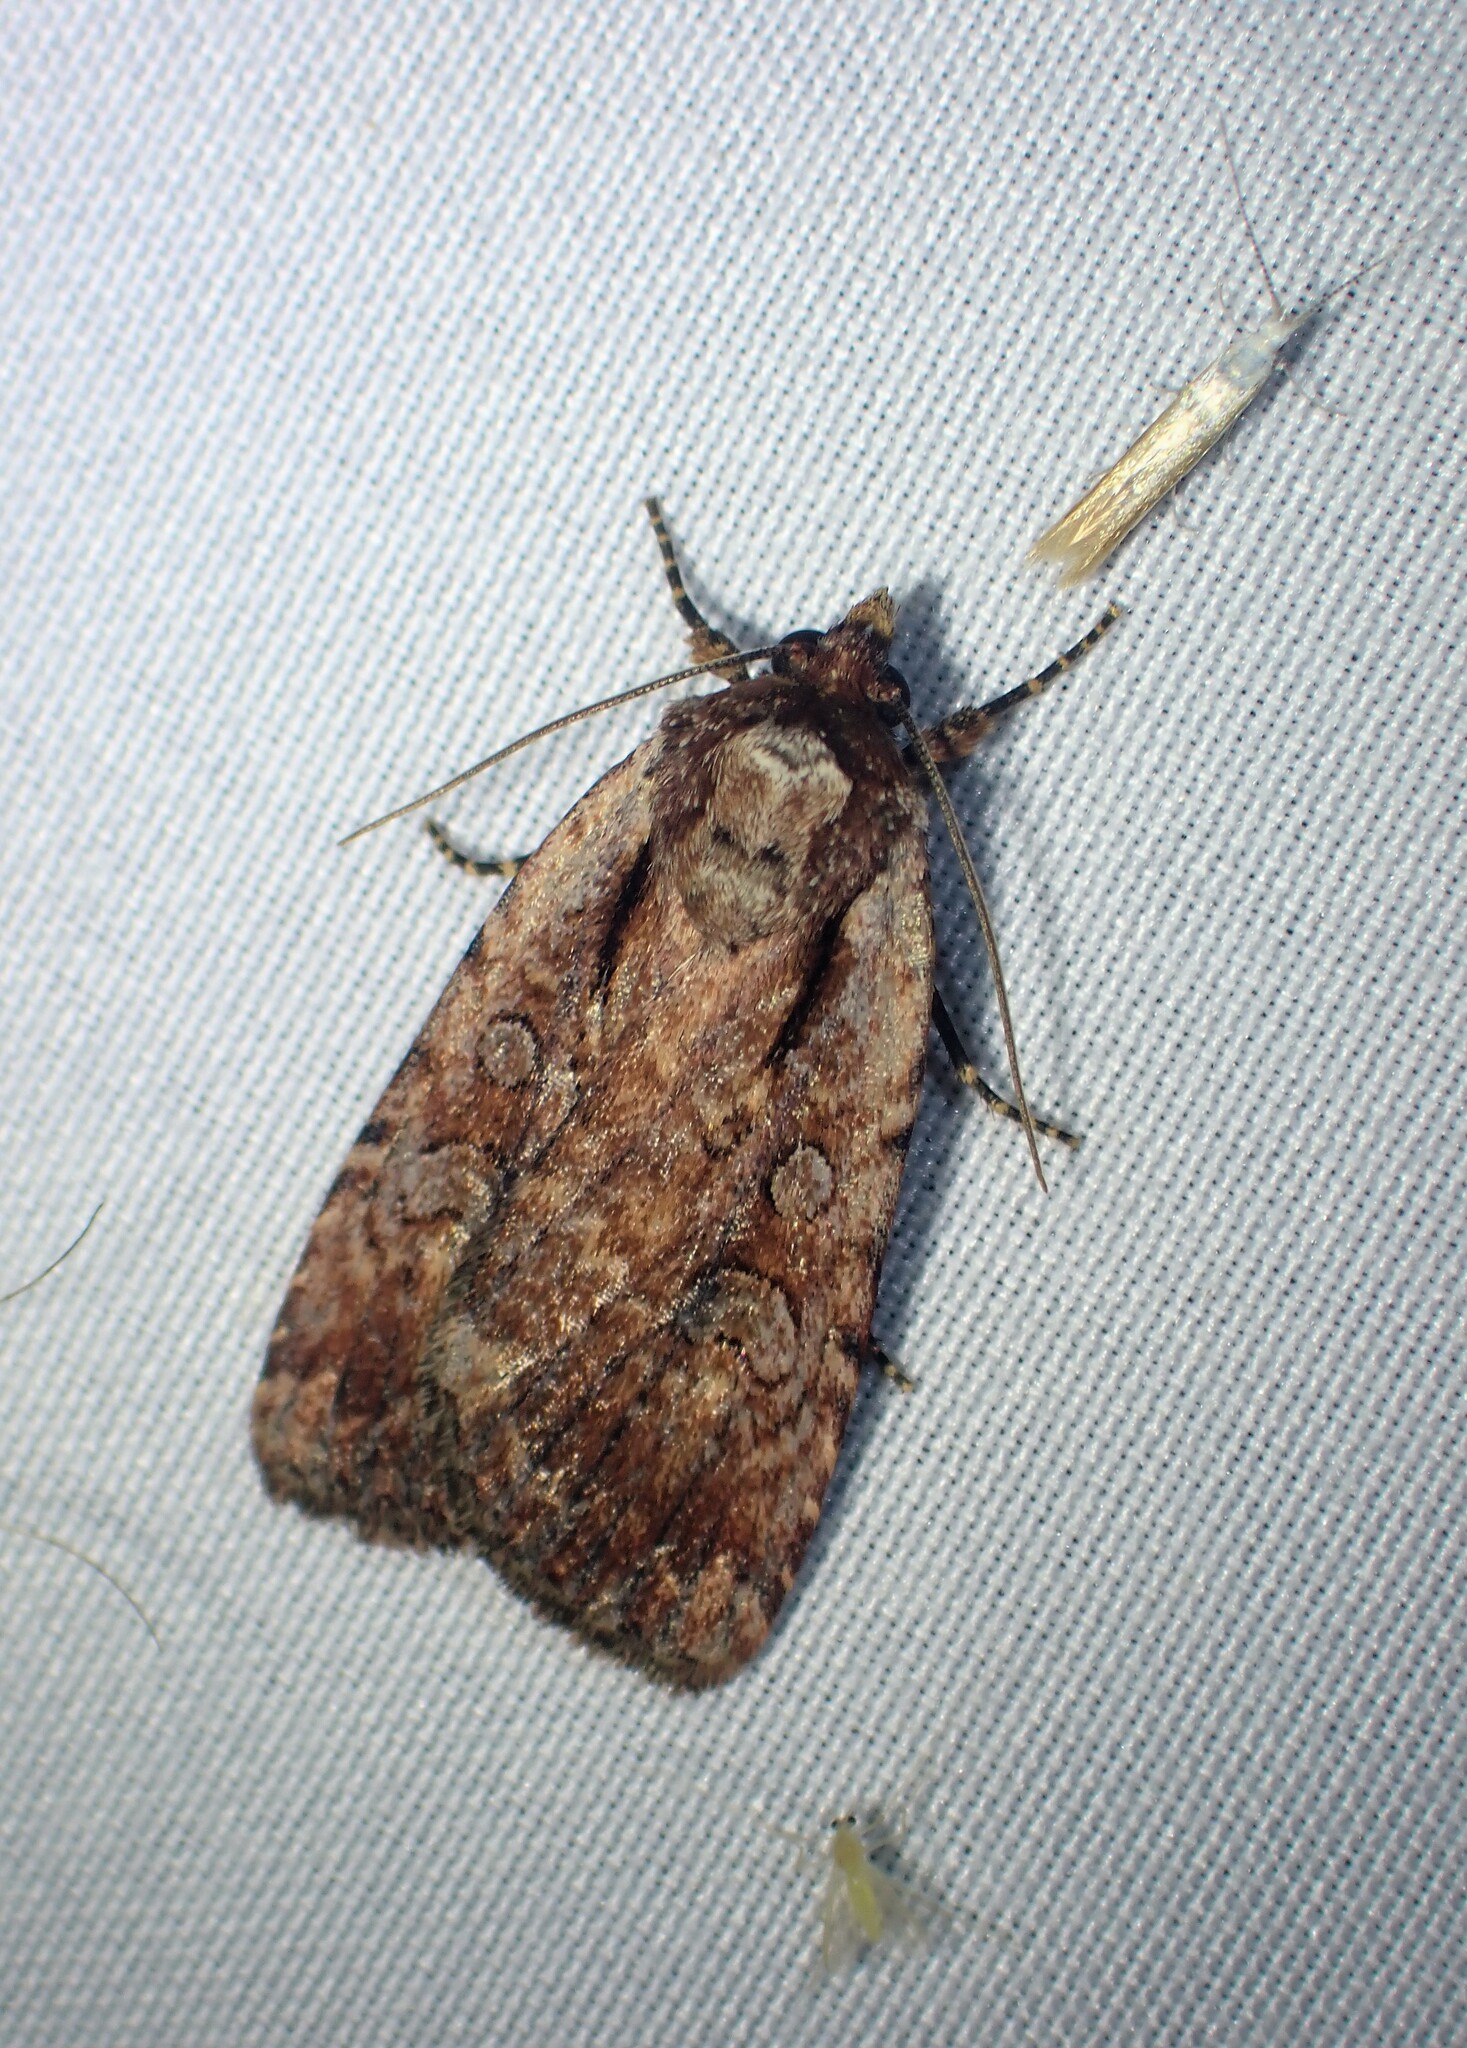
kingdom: Animalia
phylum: Arthropoda
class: Insecta
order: Lepidoptera
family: Noctuidae
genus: Eueretagrotis
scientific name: Eueretagrotis attentus
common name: Attentive dart
